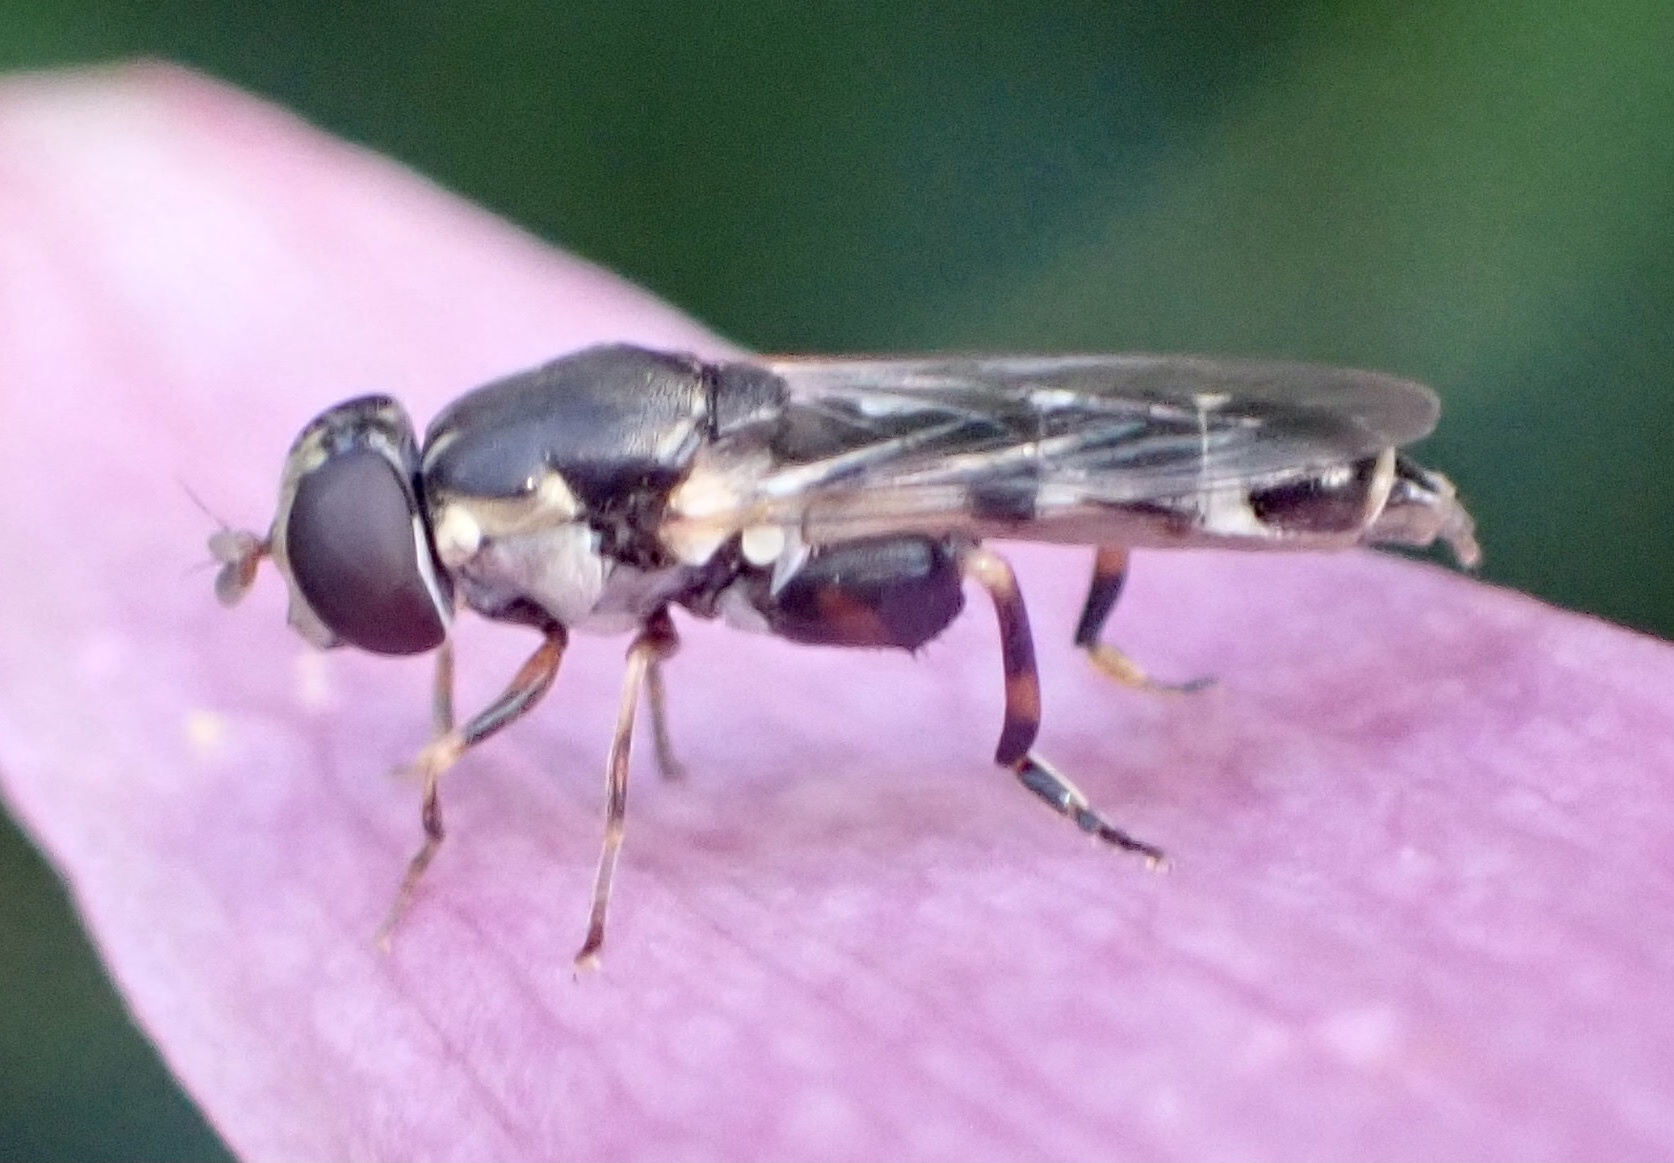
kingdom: Animalia
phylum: Arthropoda
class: Insecta
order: Diptera
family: Syrphidae
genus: Syritta
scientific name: Syritta pipiens
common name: Hover fly
